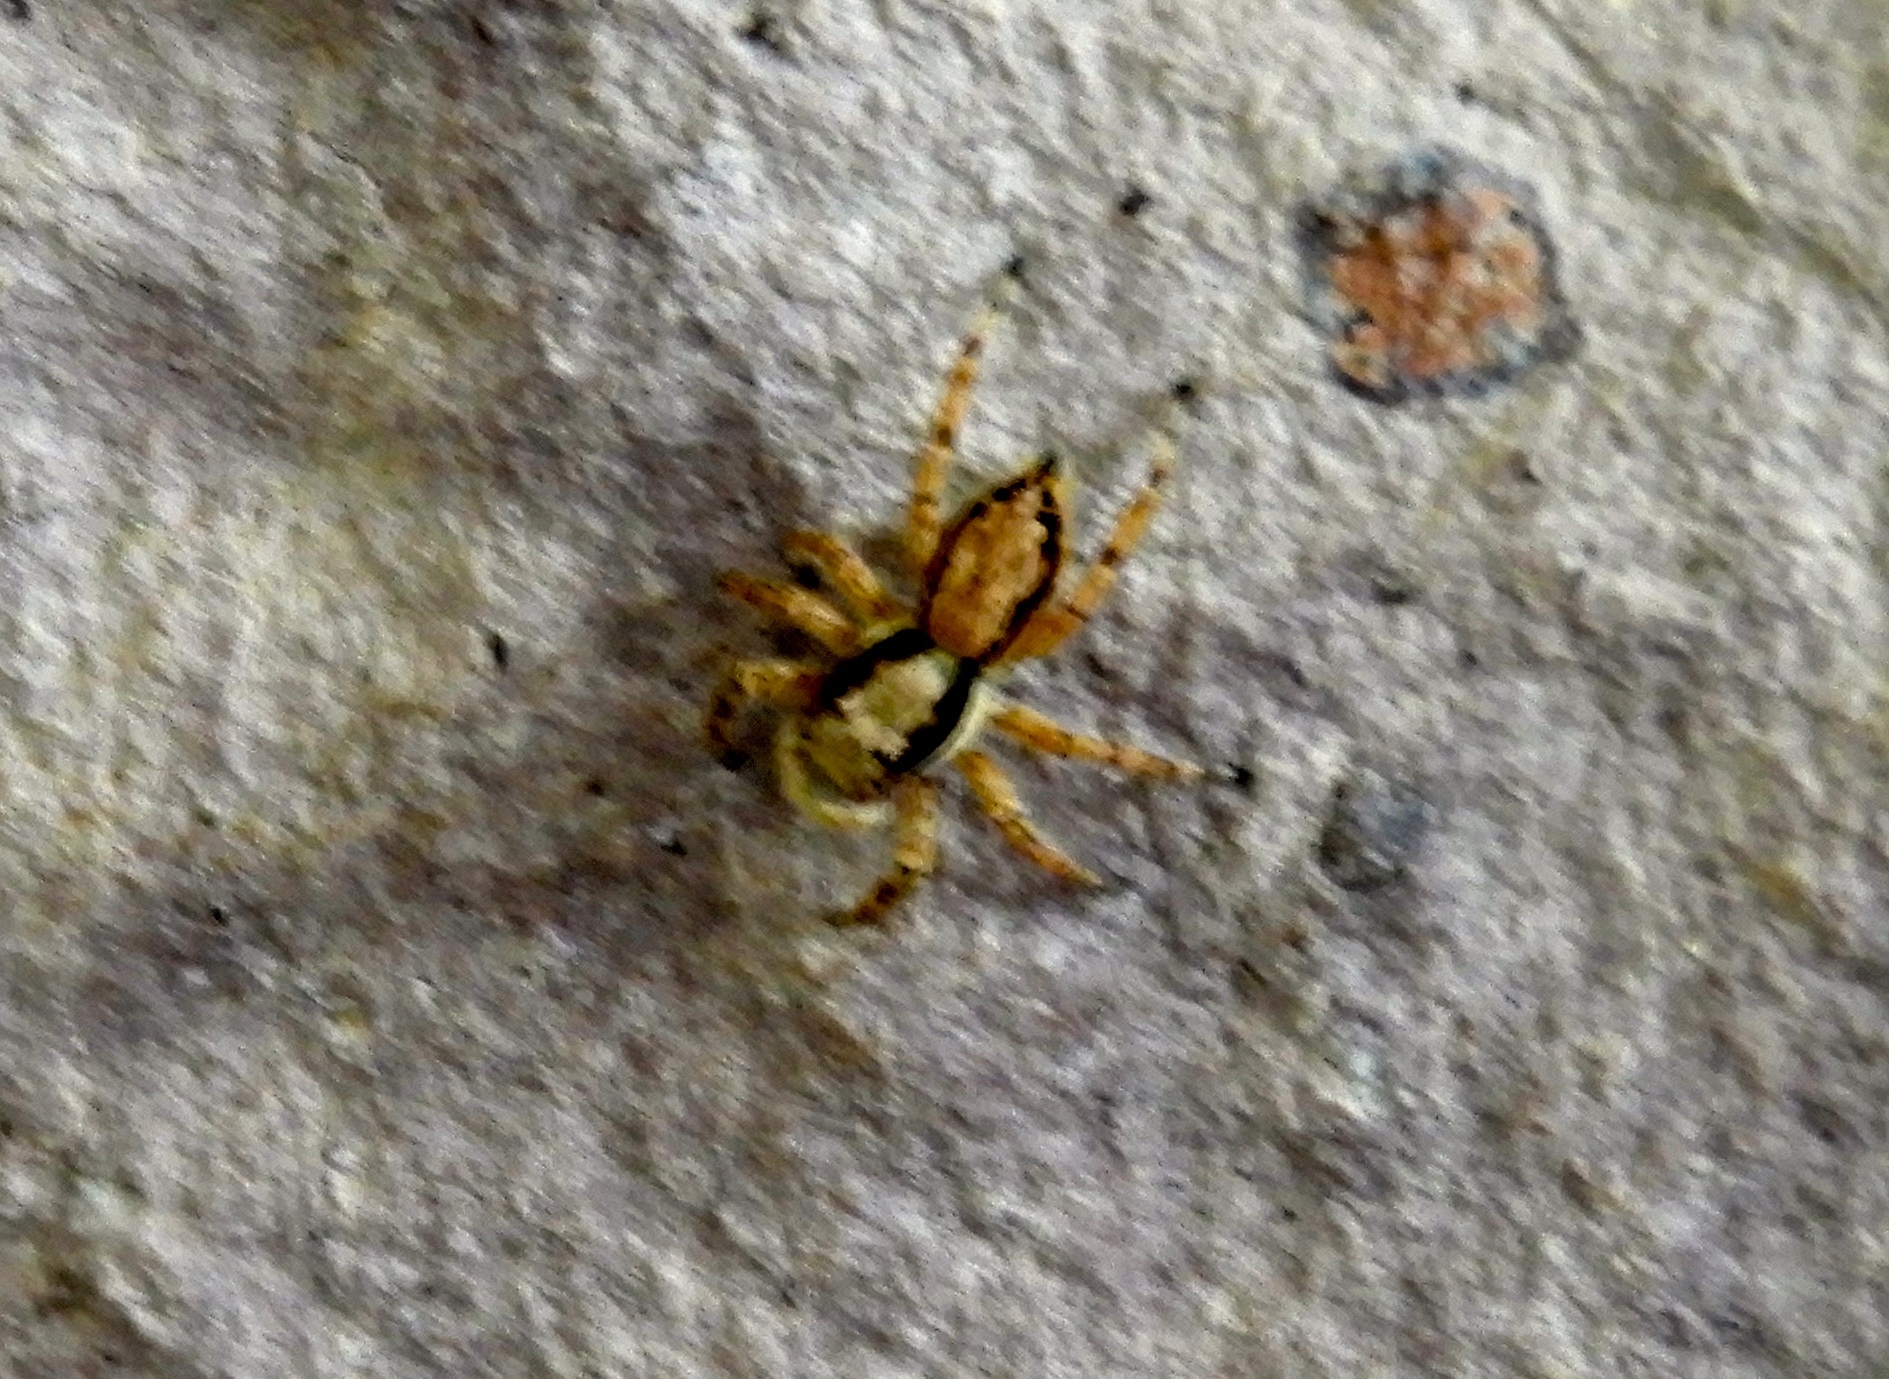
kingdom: Animalia
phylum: Arthropoda
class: Arachnida
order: Araneae
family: Salticidae
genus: Menemerus
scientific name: Menemerus
